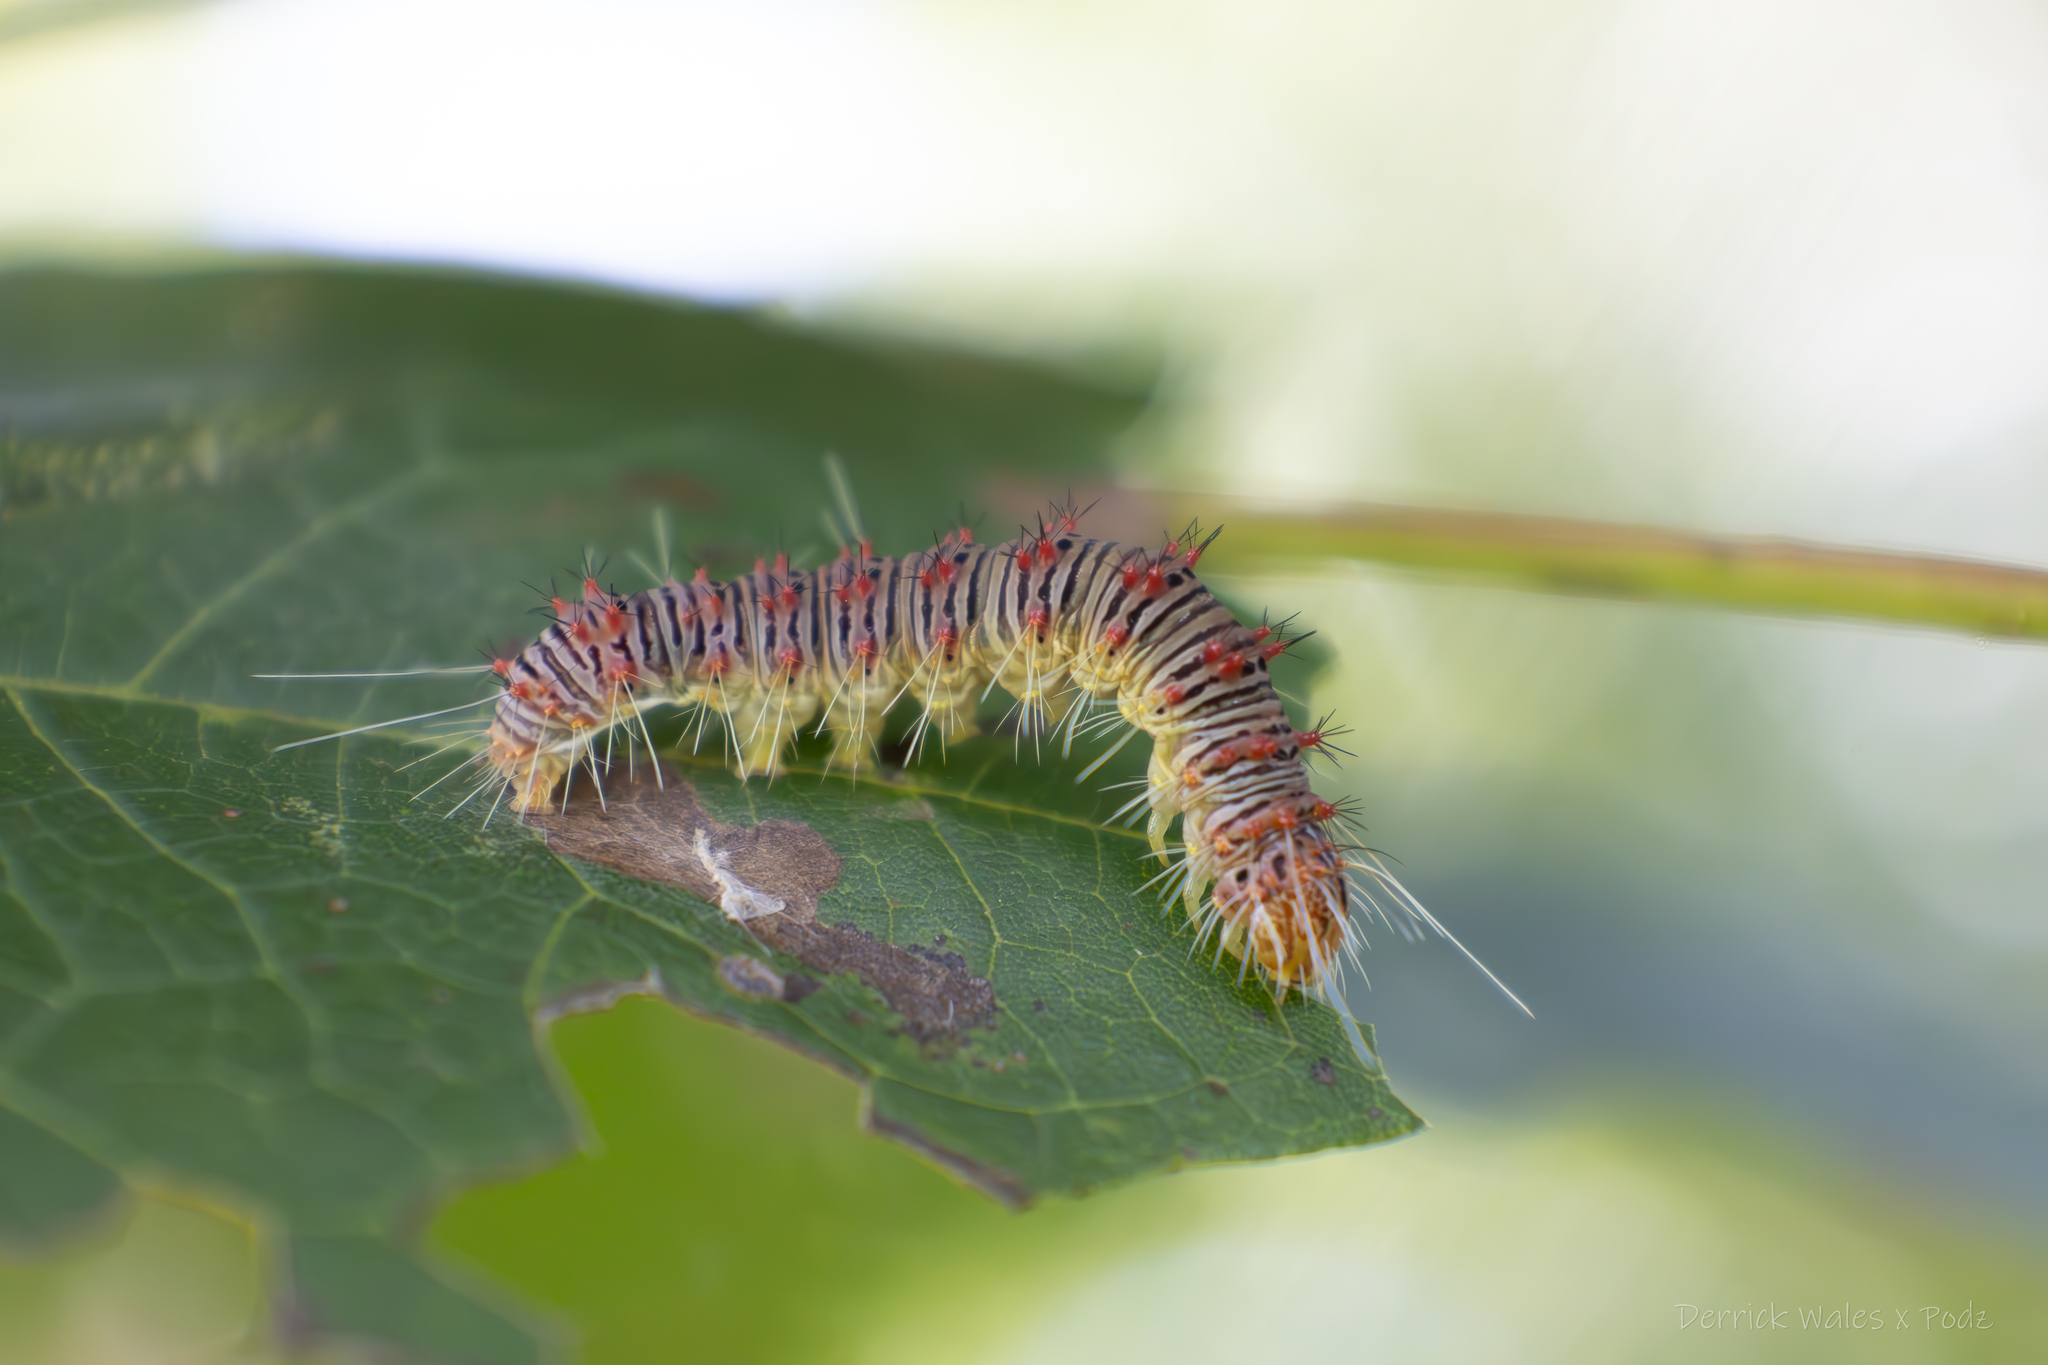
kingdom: Animalia
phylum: Arthropoda
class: Insecta
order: Lepidoptera
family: Noctuidae
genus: Acronicta
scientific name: Acronicta retardata
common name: Maple dagger
